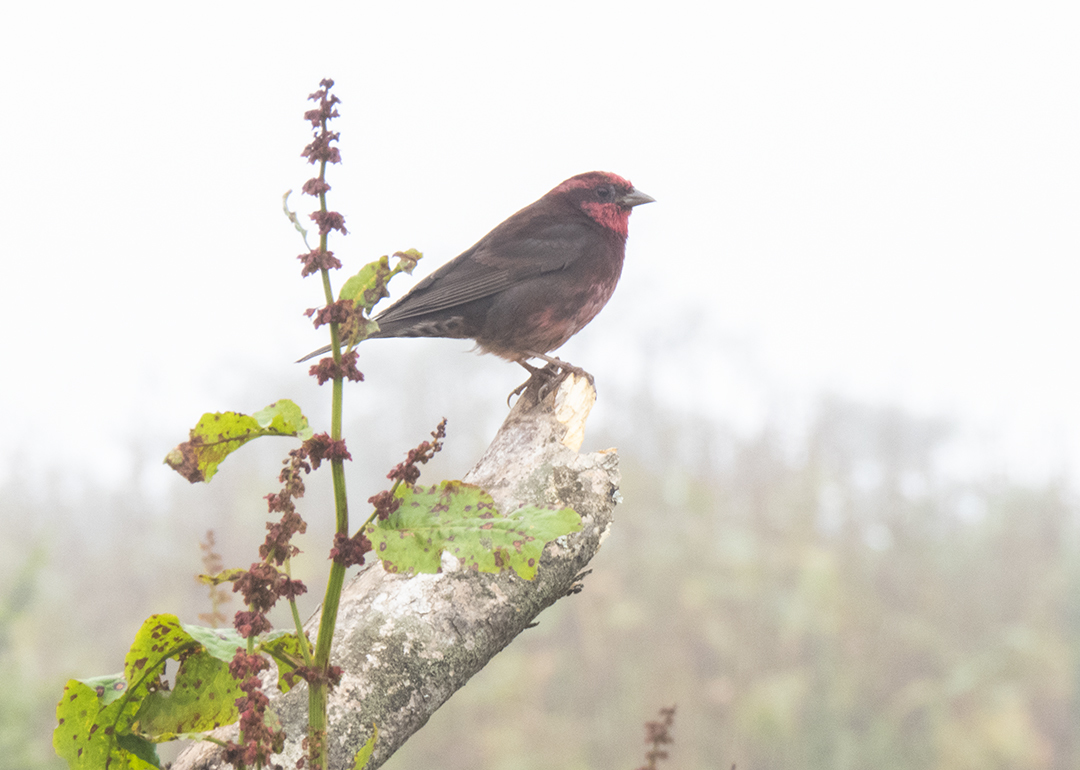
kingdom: Animalia
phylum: Chordata
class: Aves
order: Passeriformes
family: Fringillidae
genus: Procarduelis
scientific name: Procarduelis nipalensis
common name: Dark-breasted rosefinch
